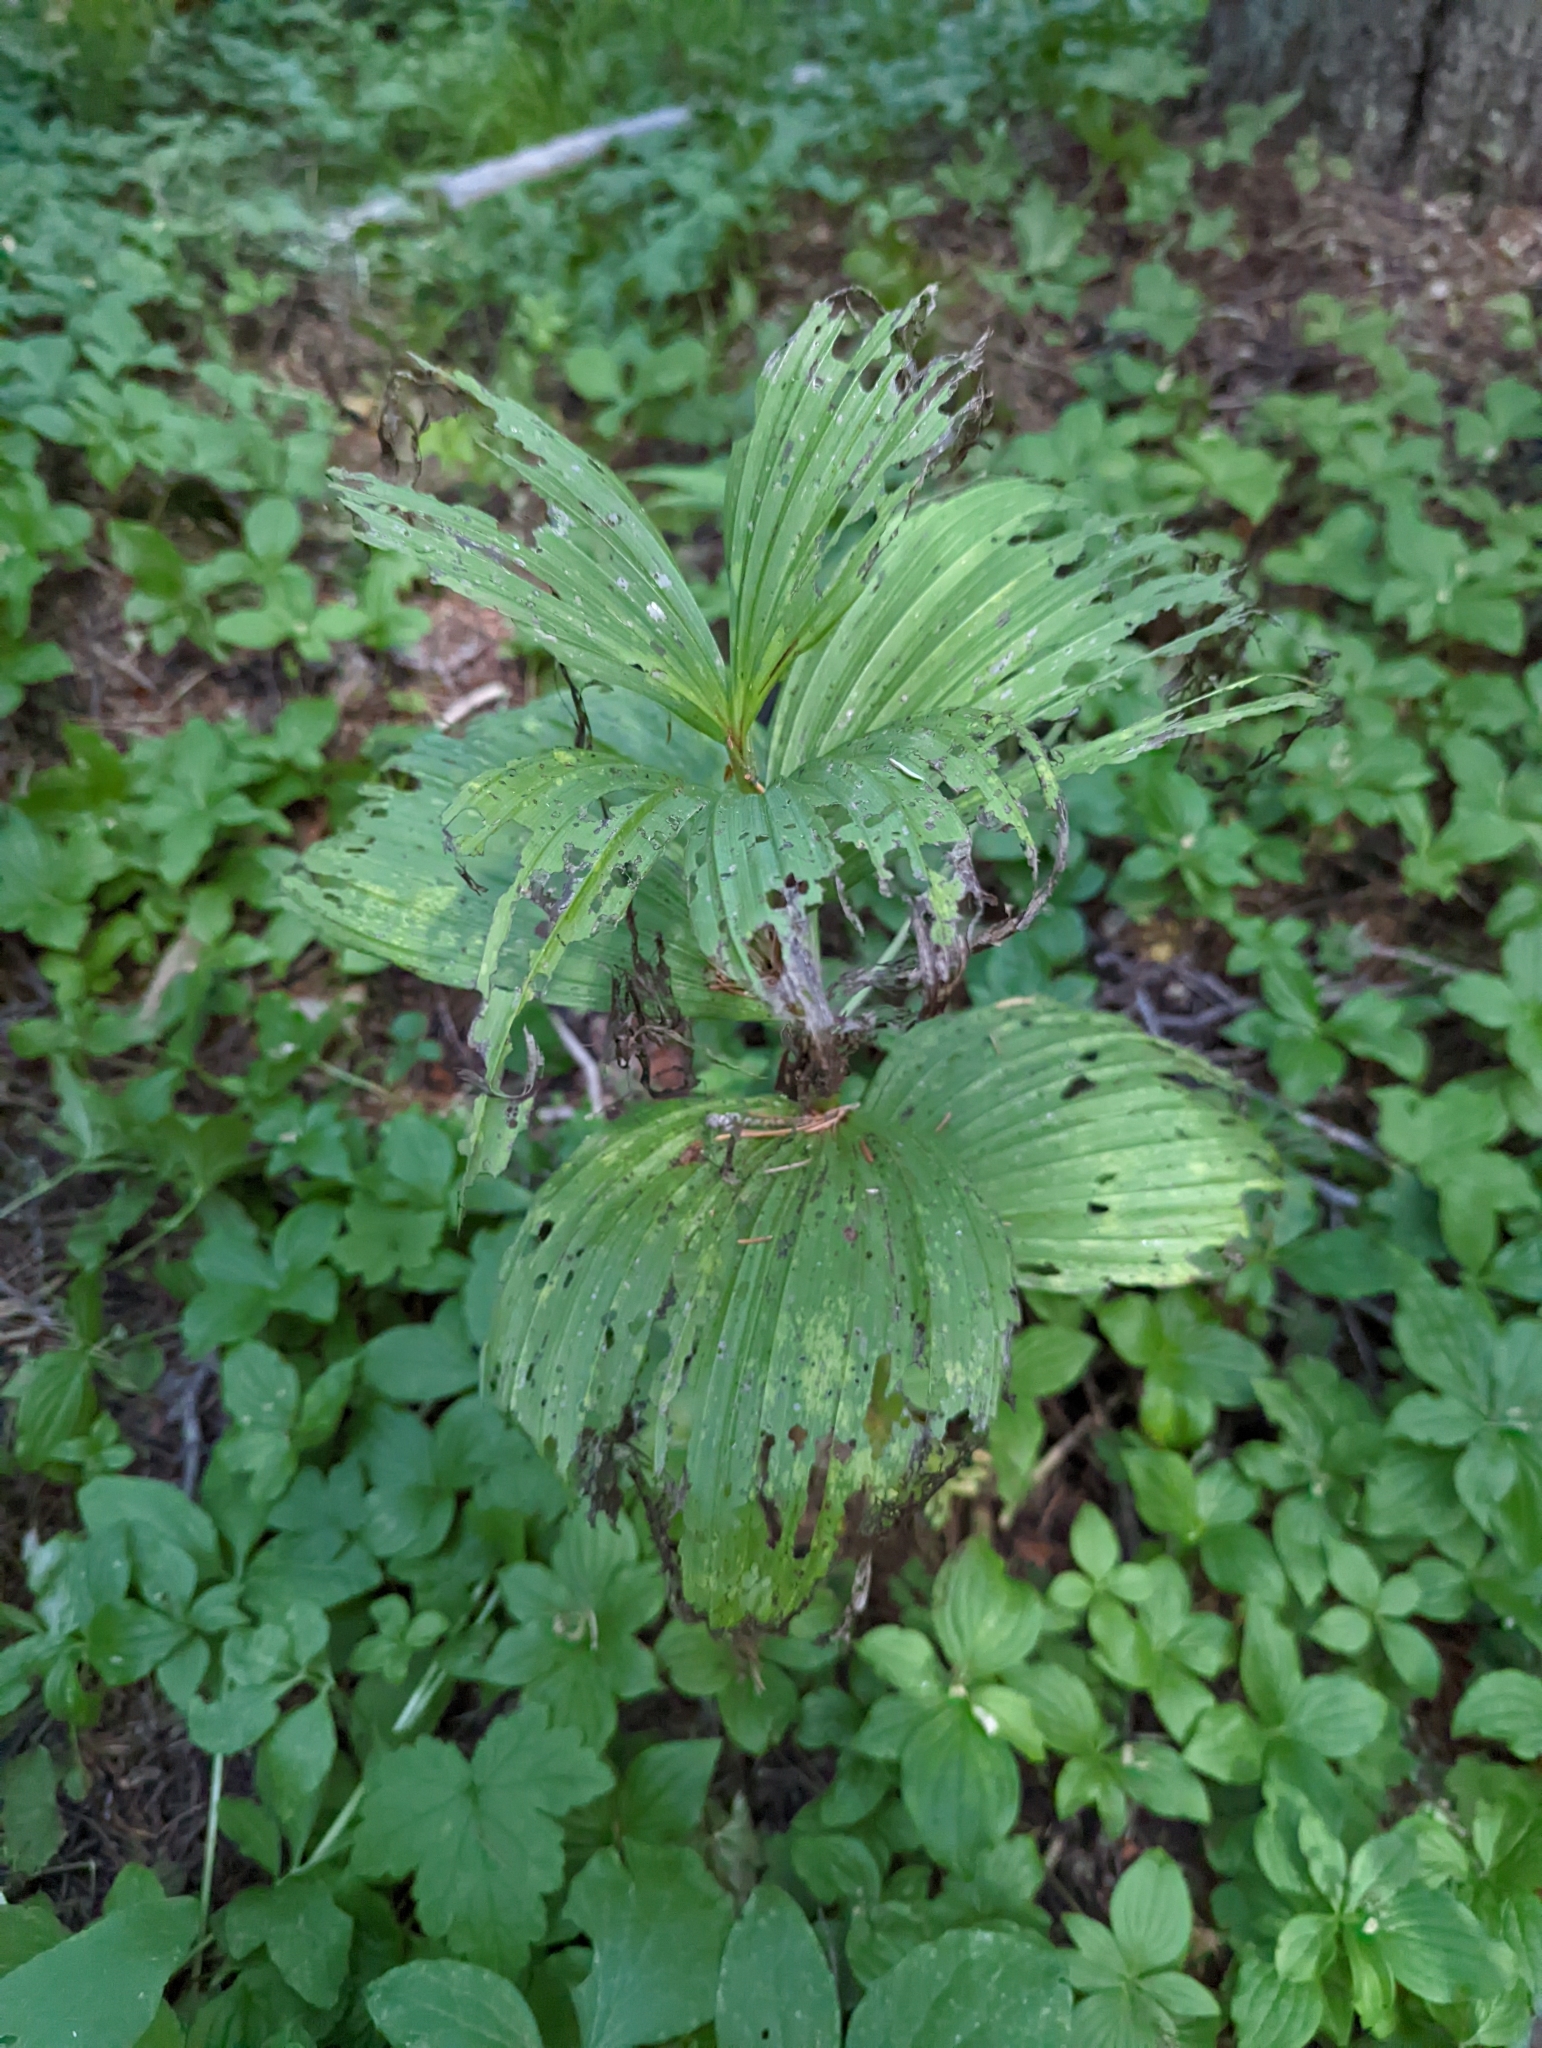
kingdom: Plantae
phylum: Tracheophyta
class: Liliopsida
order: Liliales
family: Melanthiaceae
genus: Veratrum
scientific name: Veratrum viride
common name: American false hellebore
